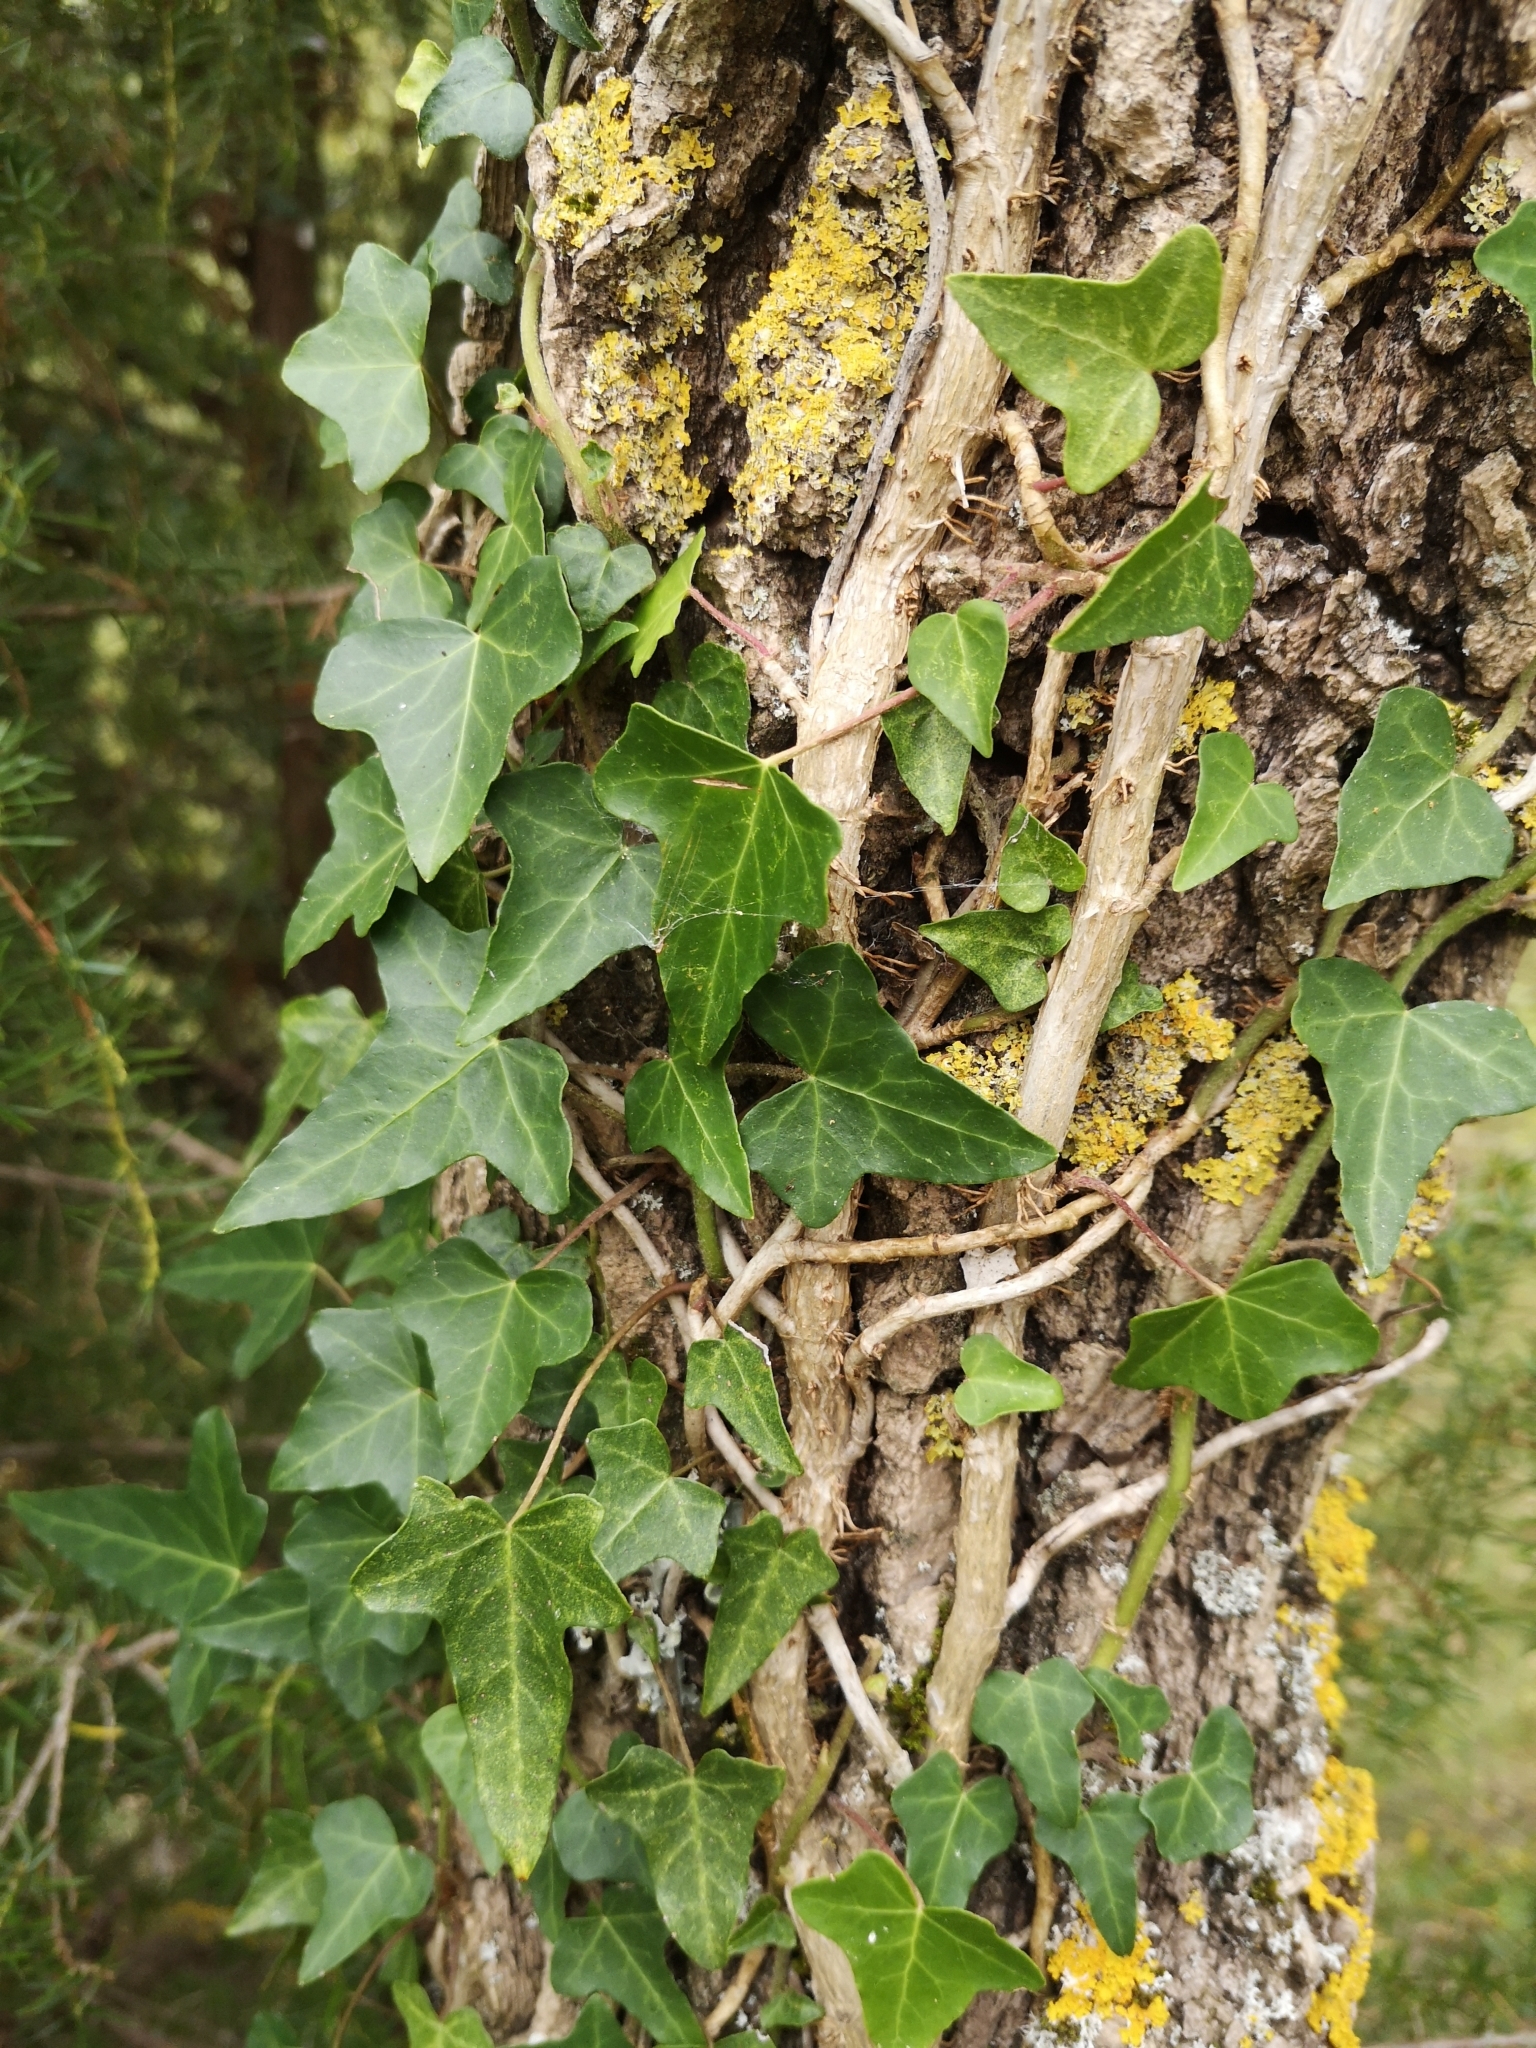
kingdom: Plantae
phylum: Tracheophyta
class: Magnoliopsida
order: Apiales
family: Araliaceae
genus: Hedera
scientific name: Hedera helix
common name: Ivy
